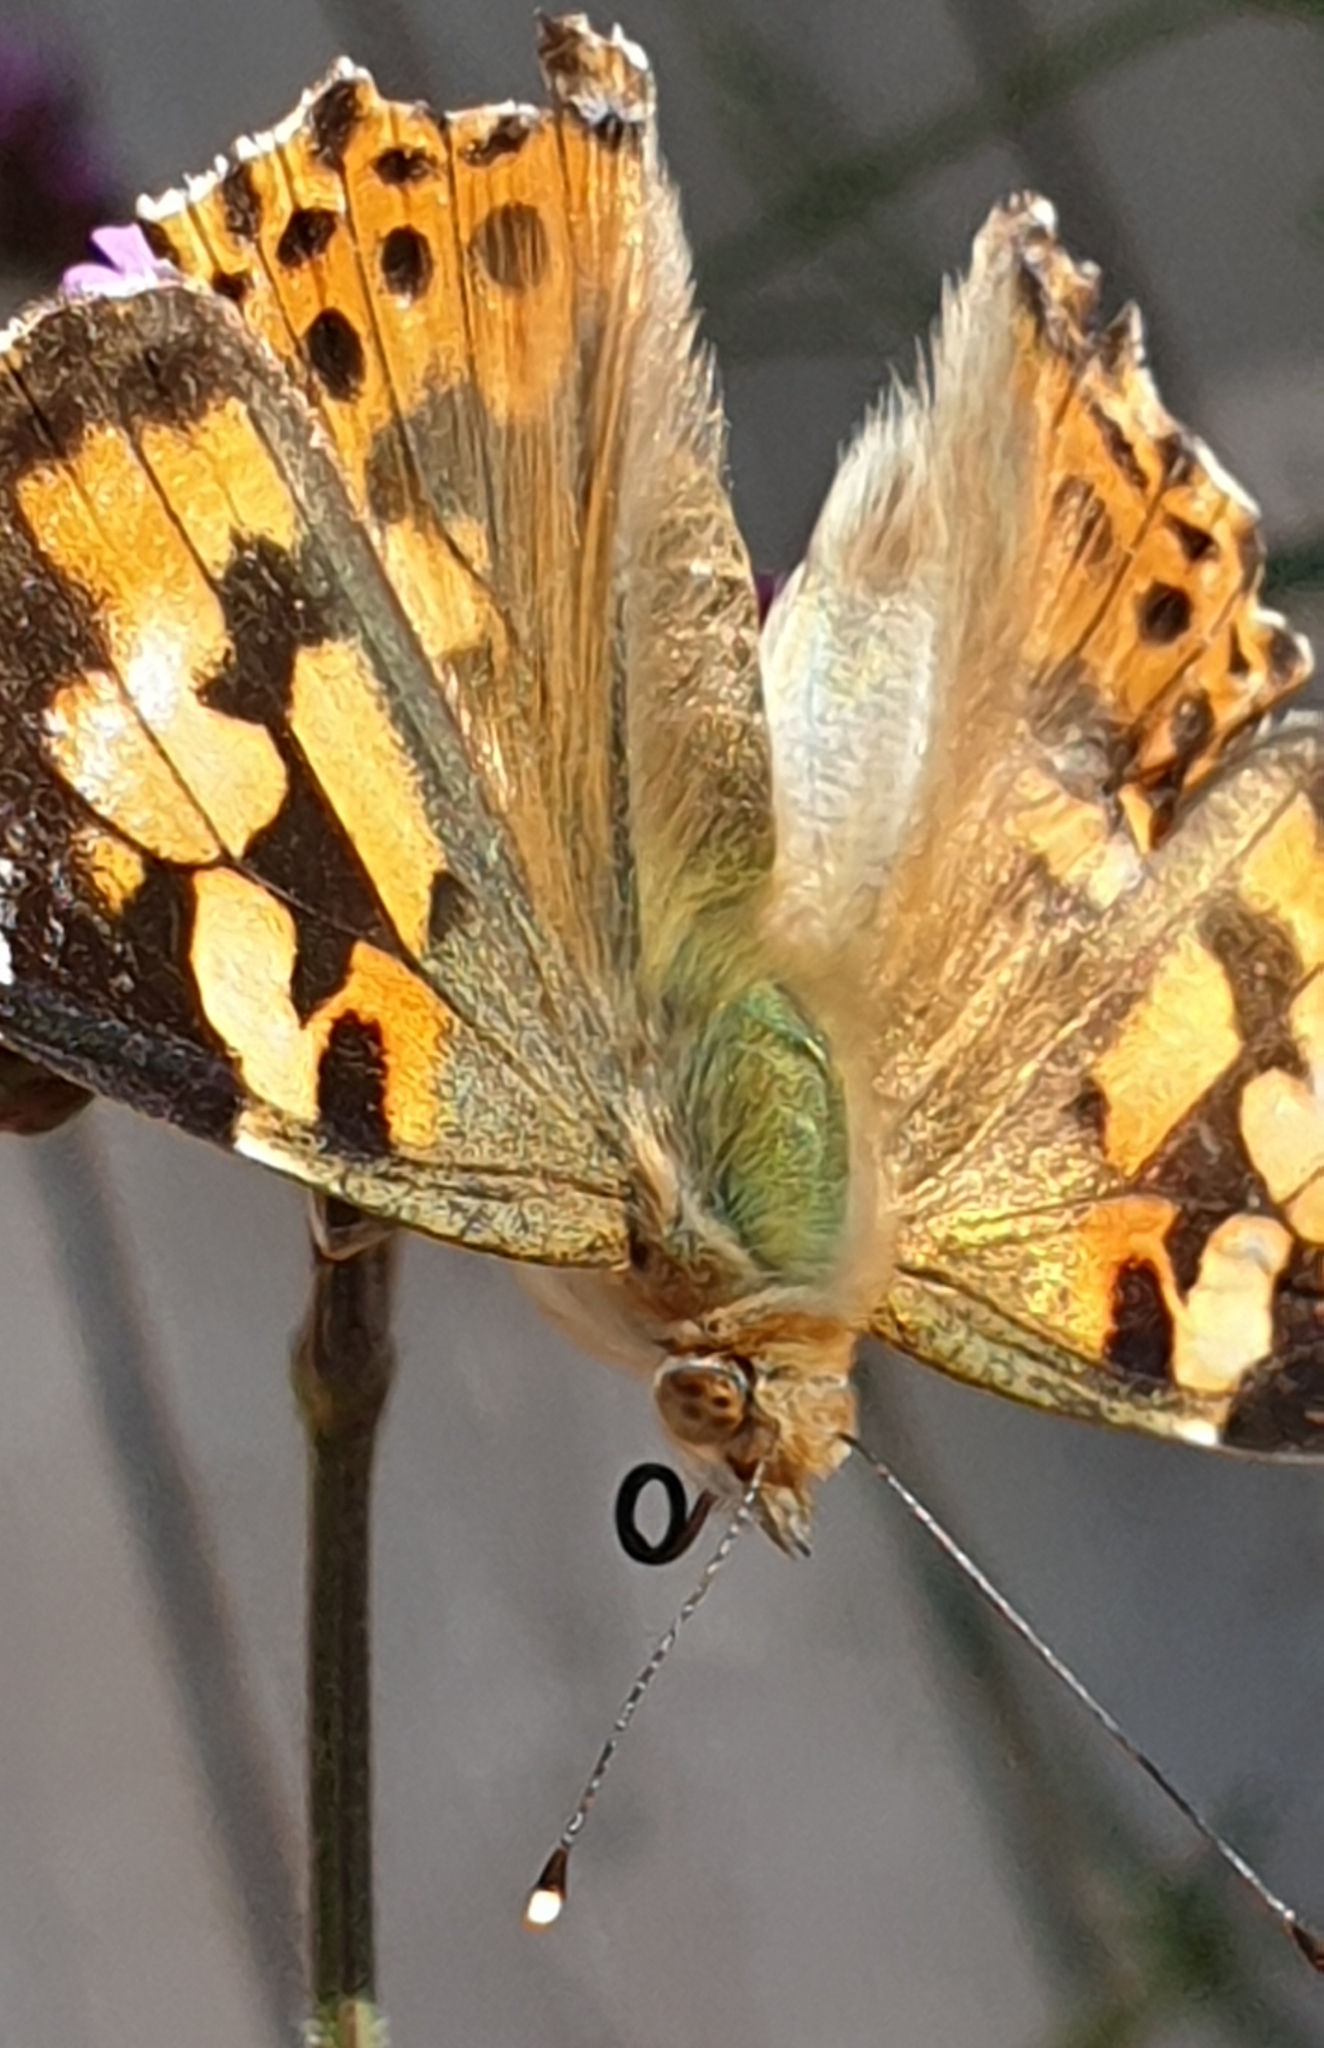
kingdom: Animalia
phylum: Arthropoda
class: Insecta
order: Lepidoptera
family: Nymphalidae
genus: Vanessa
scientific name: Vanessa cardui
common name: Painted lady
